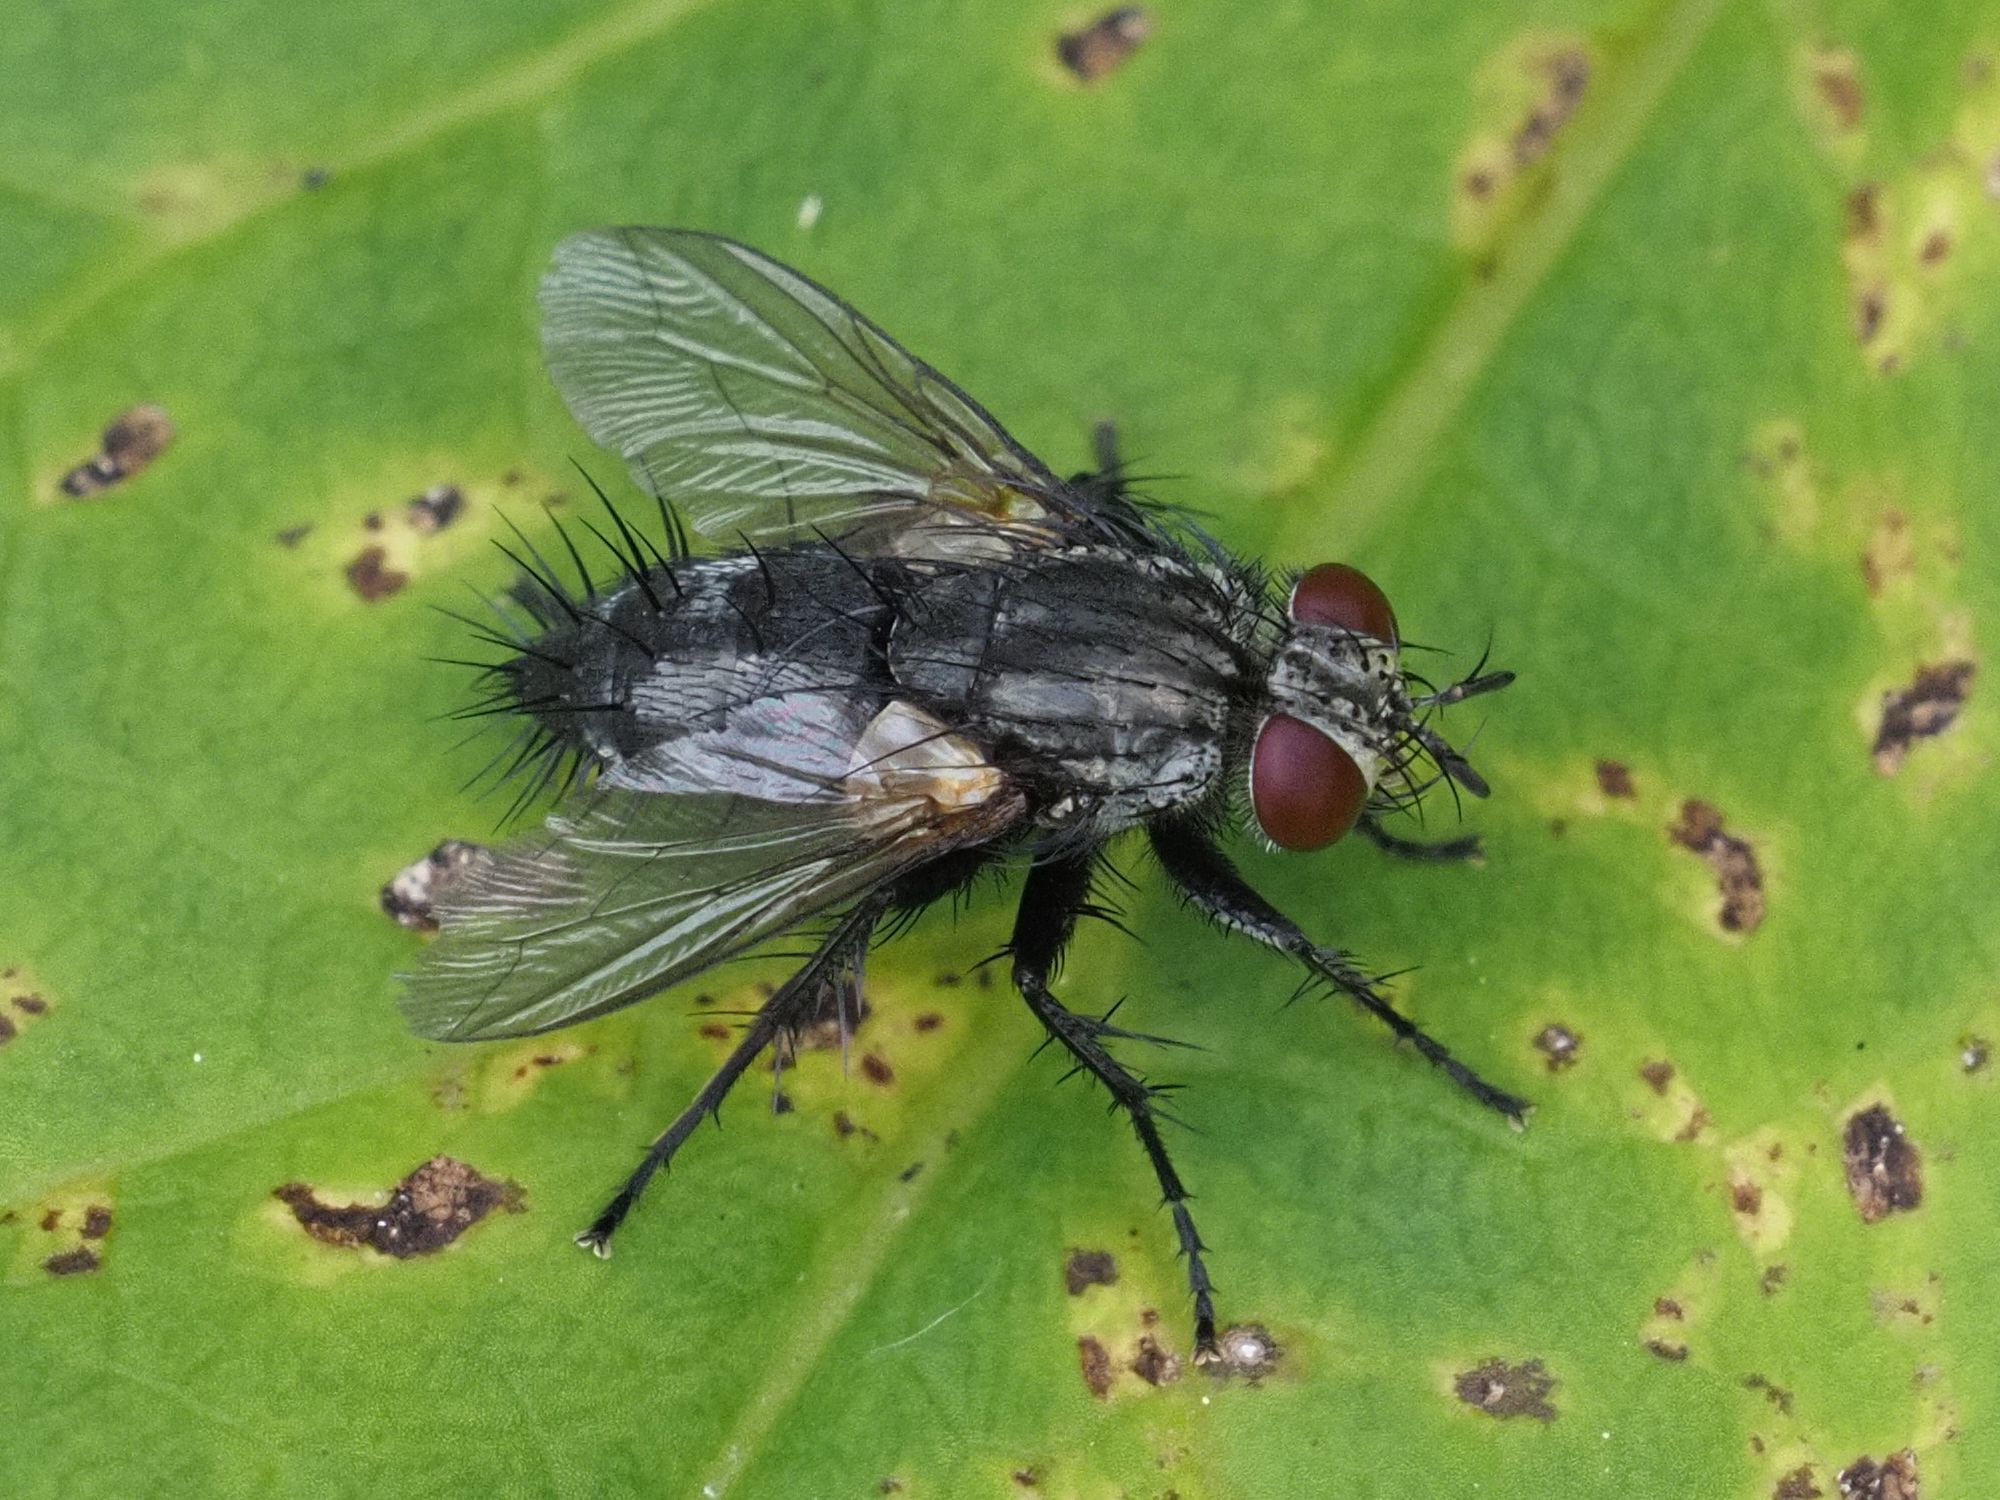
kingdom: Animalia
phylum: Arthropoda
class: Insecta
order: Diptera
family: Tachinidae
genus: Voria
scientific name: Voria ruralis
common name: Parasitic fly
